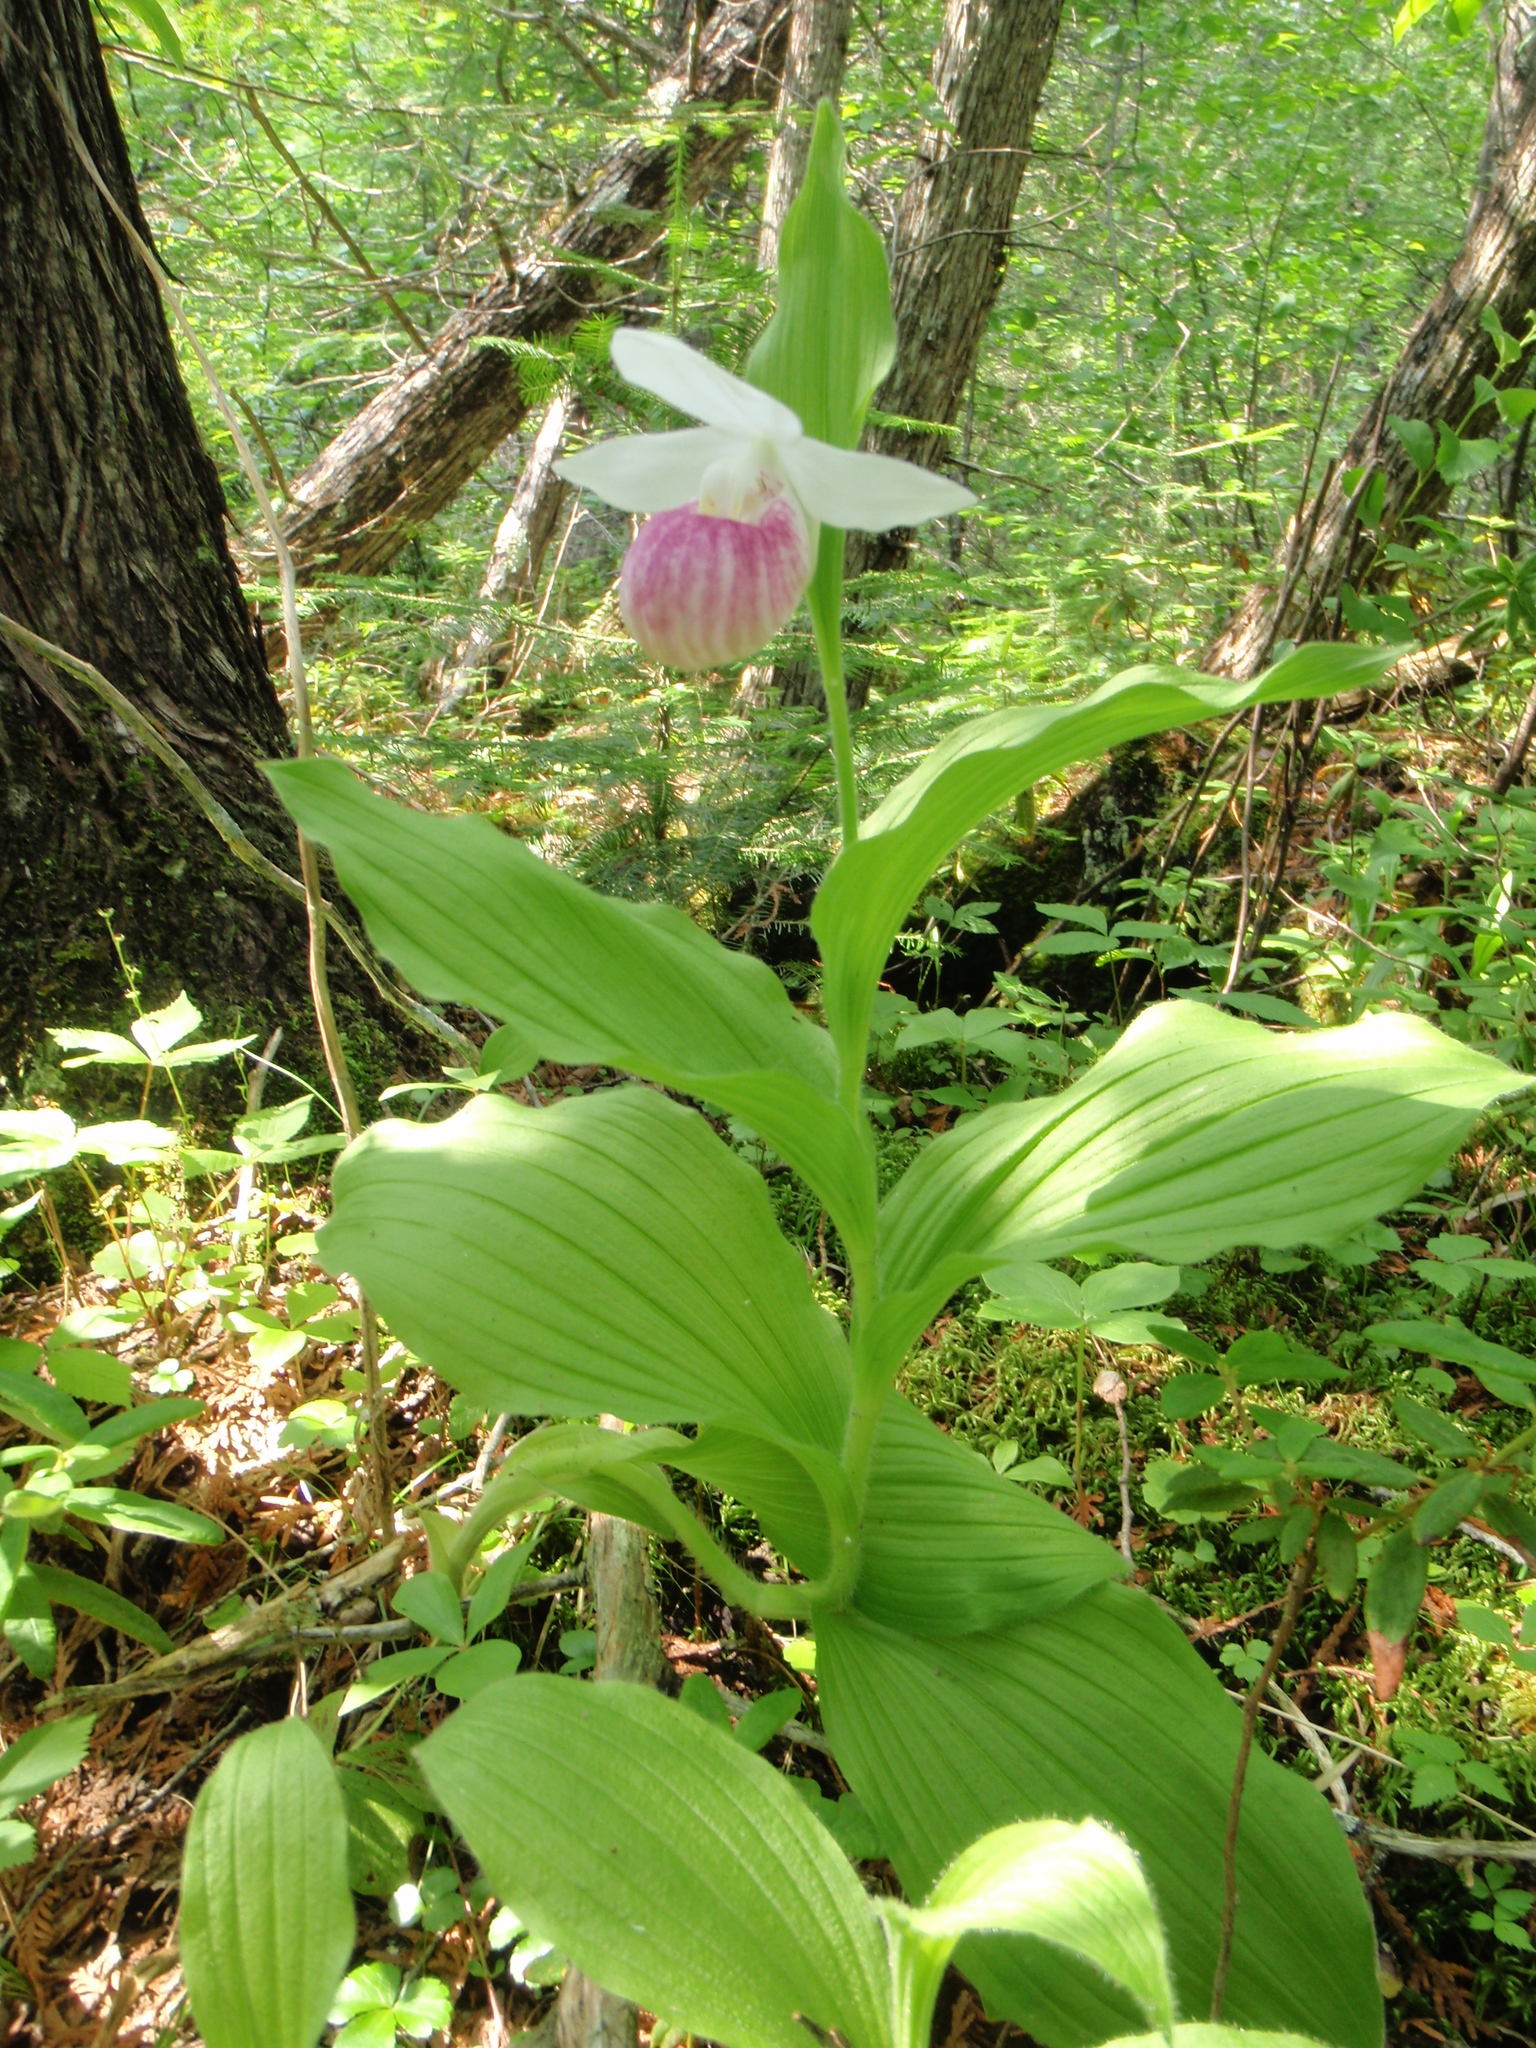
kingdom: Plantae
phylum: Tracheophyta
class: Liliopsida
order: Asparagales
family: Orchidaceae
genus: Cypripedium
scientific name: Cypripedium reginae
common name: Queen lady's-slipper
